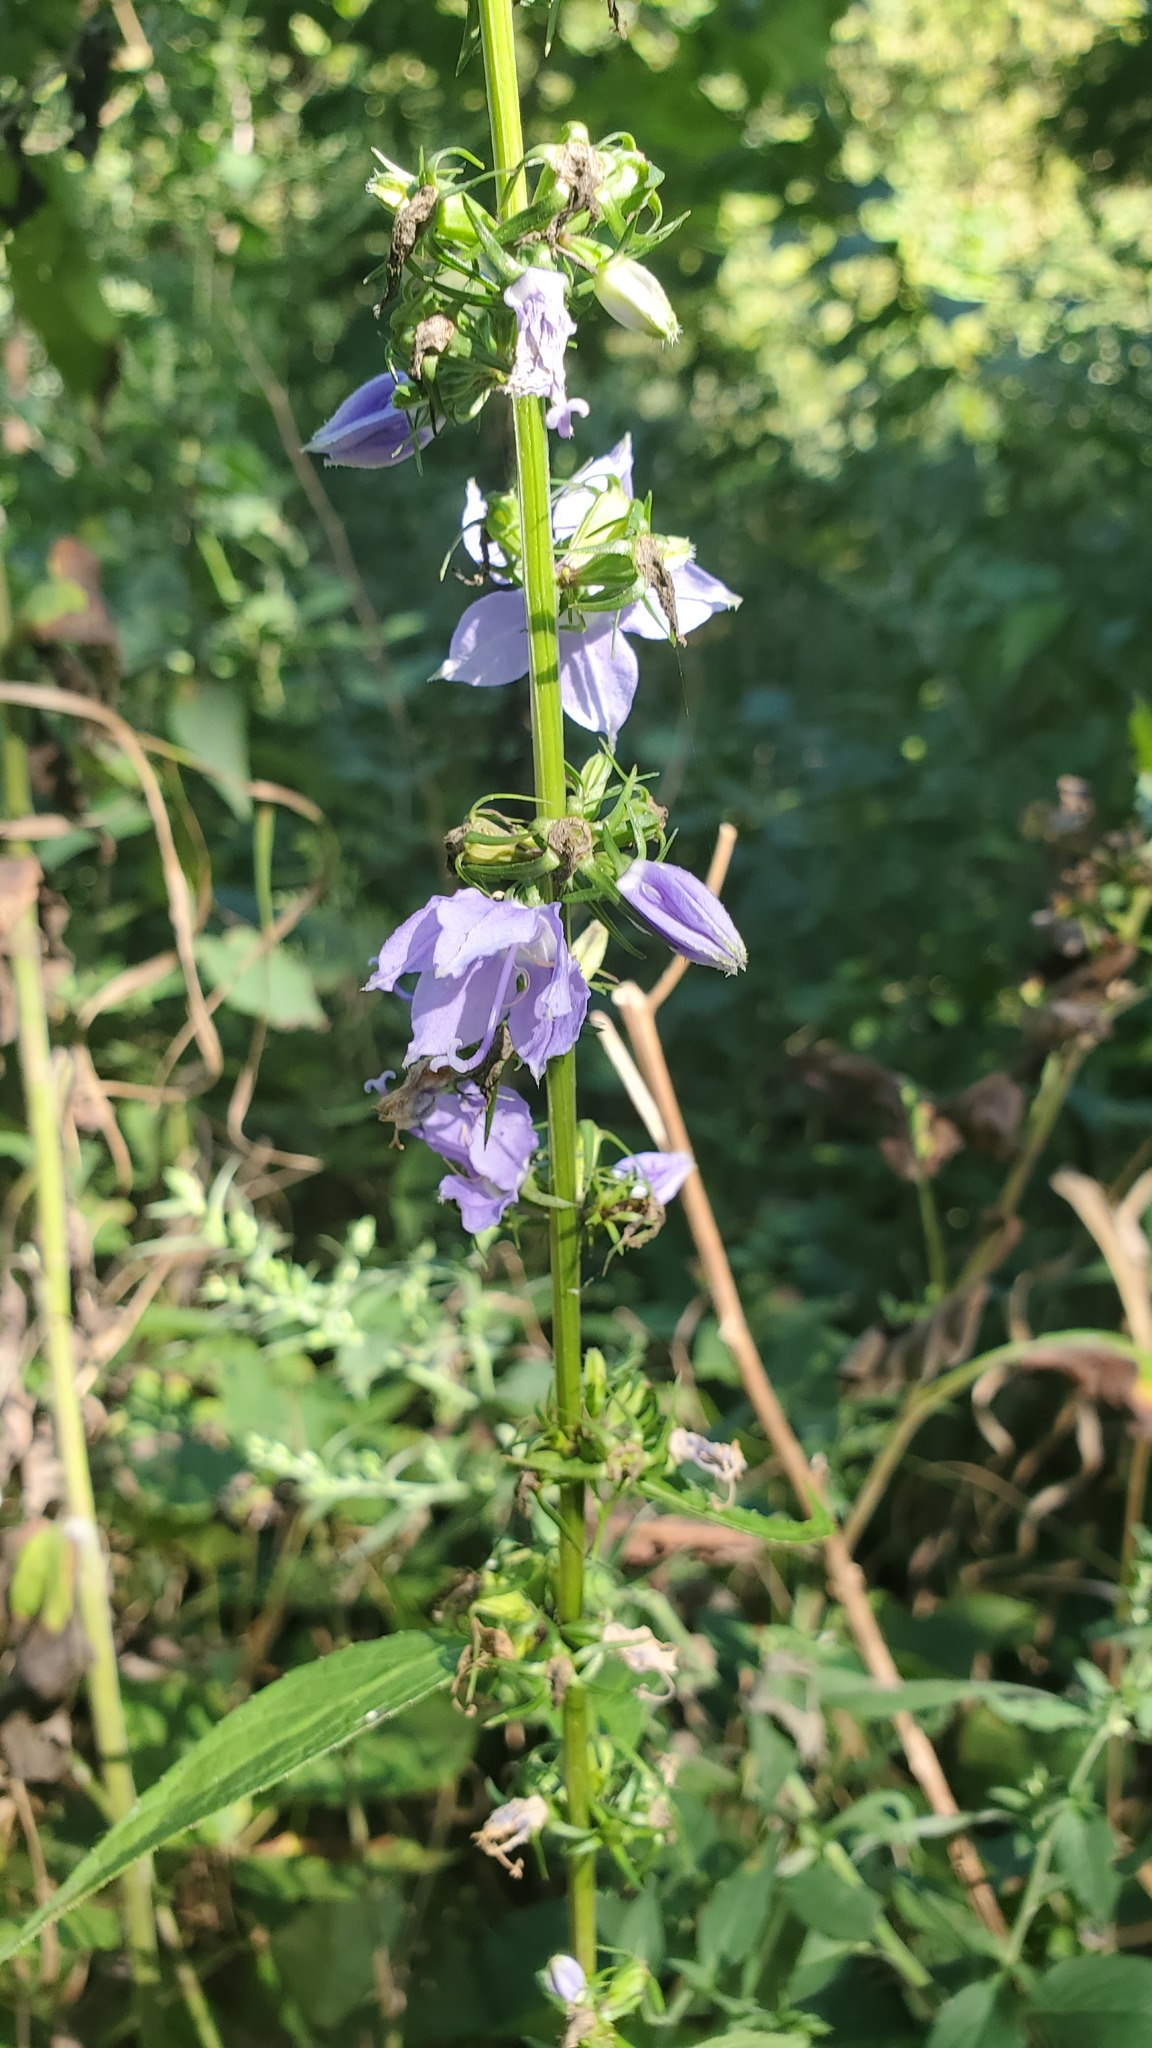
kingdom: Plantae
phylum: Tracheophyta
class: Magnoliopsida
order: Asterales
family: Campanulaceae
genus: Campanulastrum
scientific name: Campanulastrum americanum
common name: American bellflower
